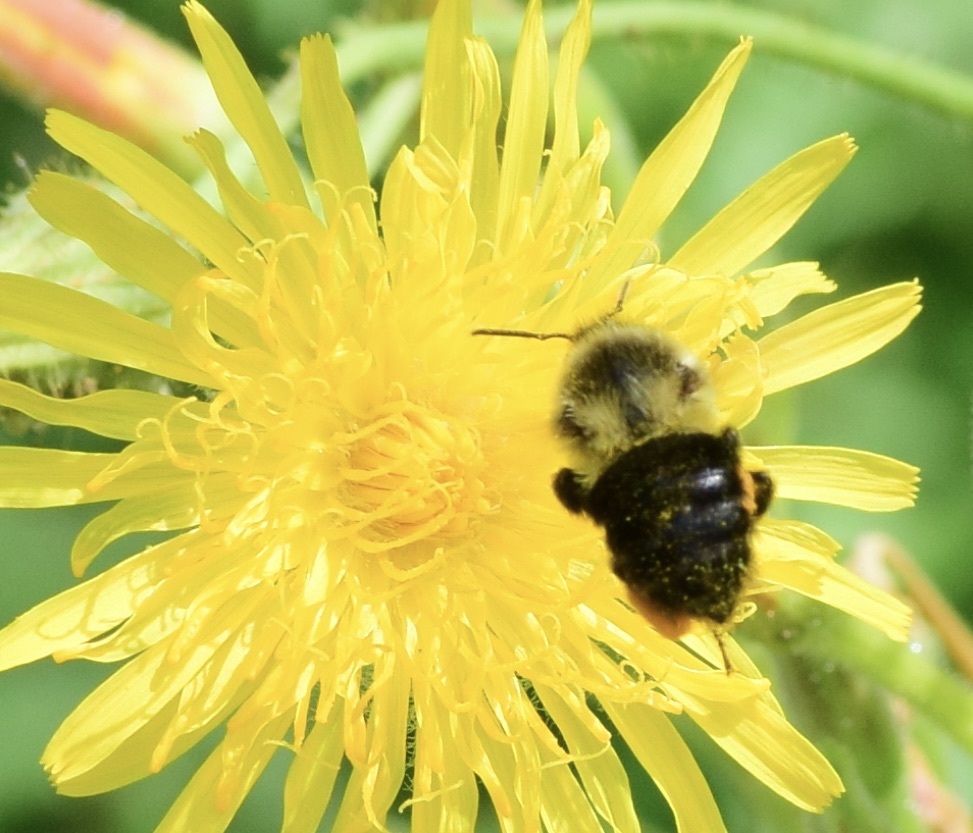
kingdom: Animalia
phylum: Arthropoda
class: Insecta
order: Hymenoptera
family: Apidae
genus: Bombus
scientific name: Bombus impatiens
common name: Common eastern bumble bee
